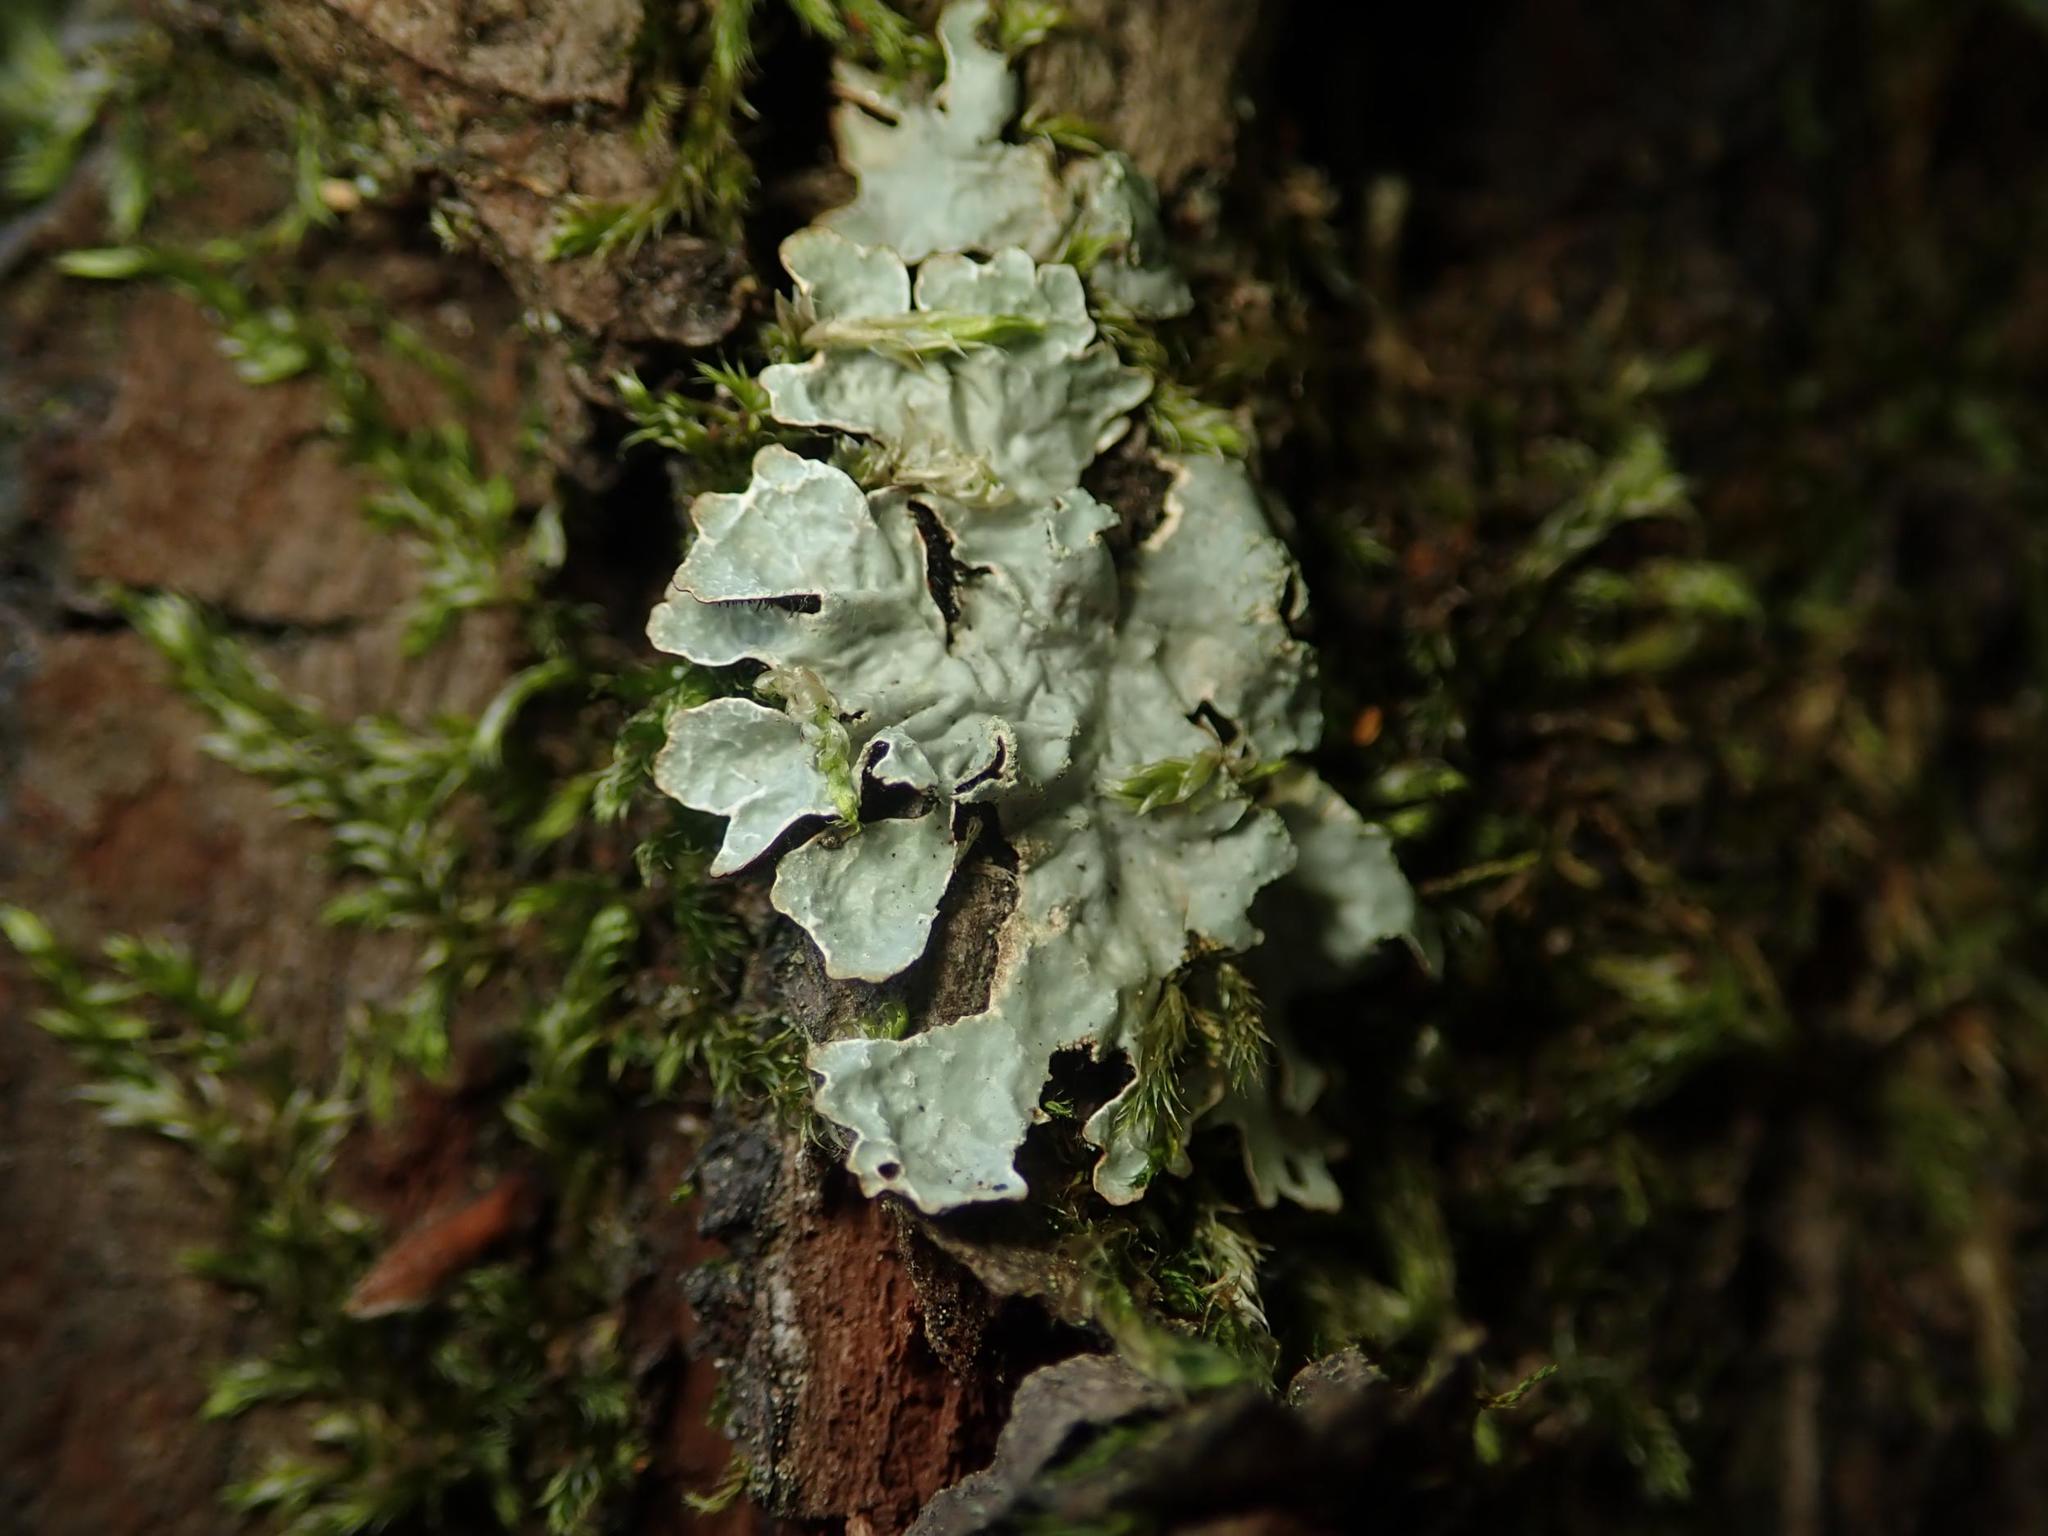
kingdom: Fungi
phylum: Ascomycota
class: Lecanoromycetes
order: Lecanorales
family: Parmeliaceae
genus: Parmelia
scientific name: Parmelia sulcata
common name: Netted shield lichen
